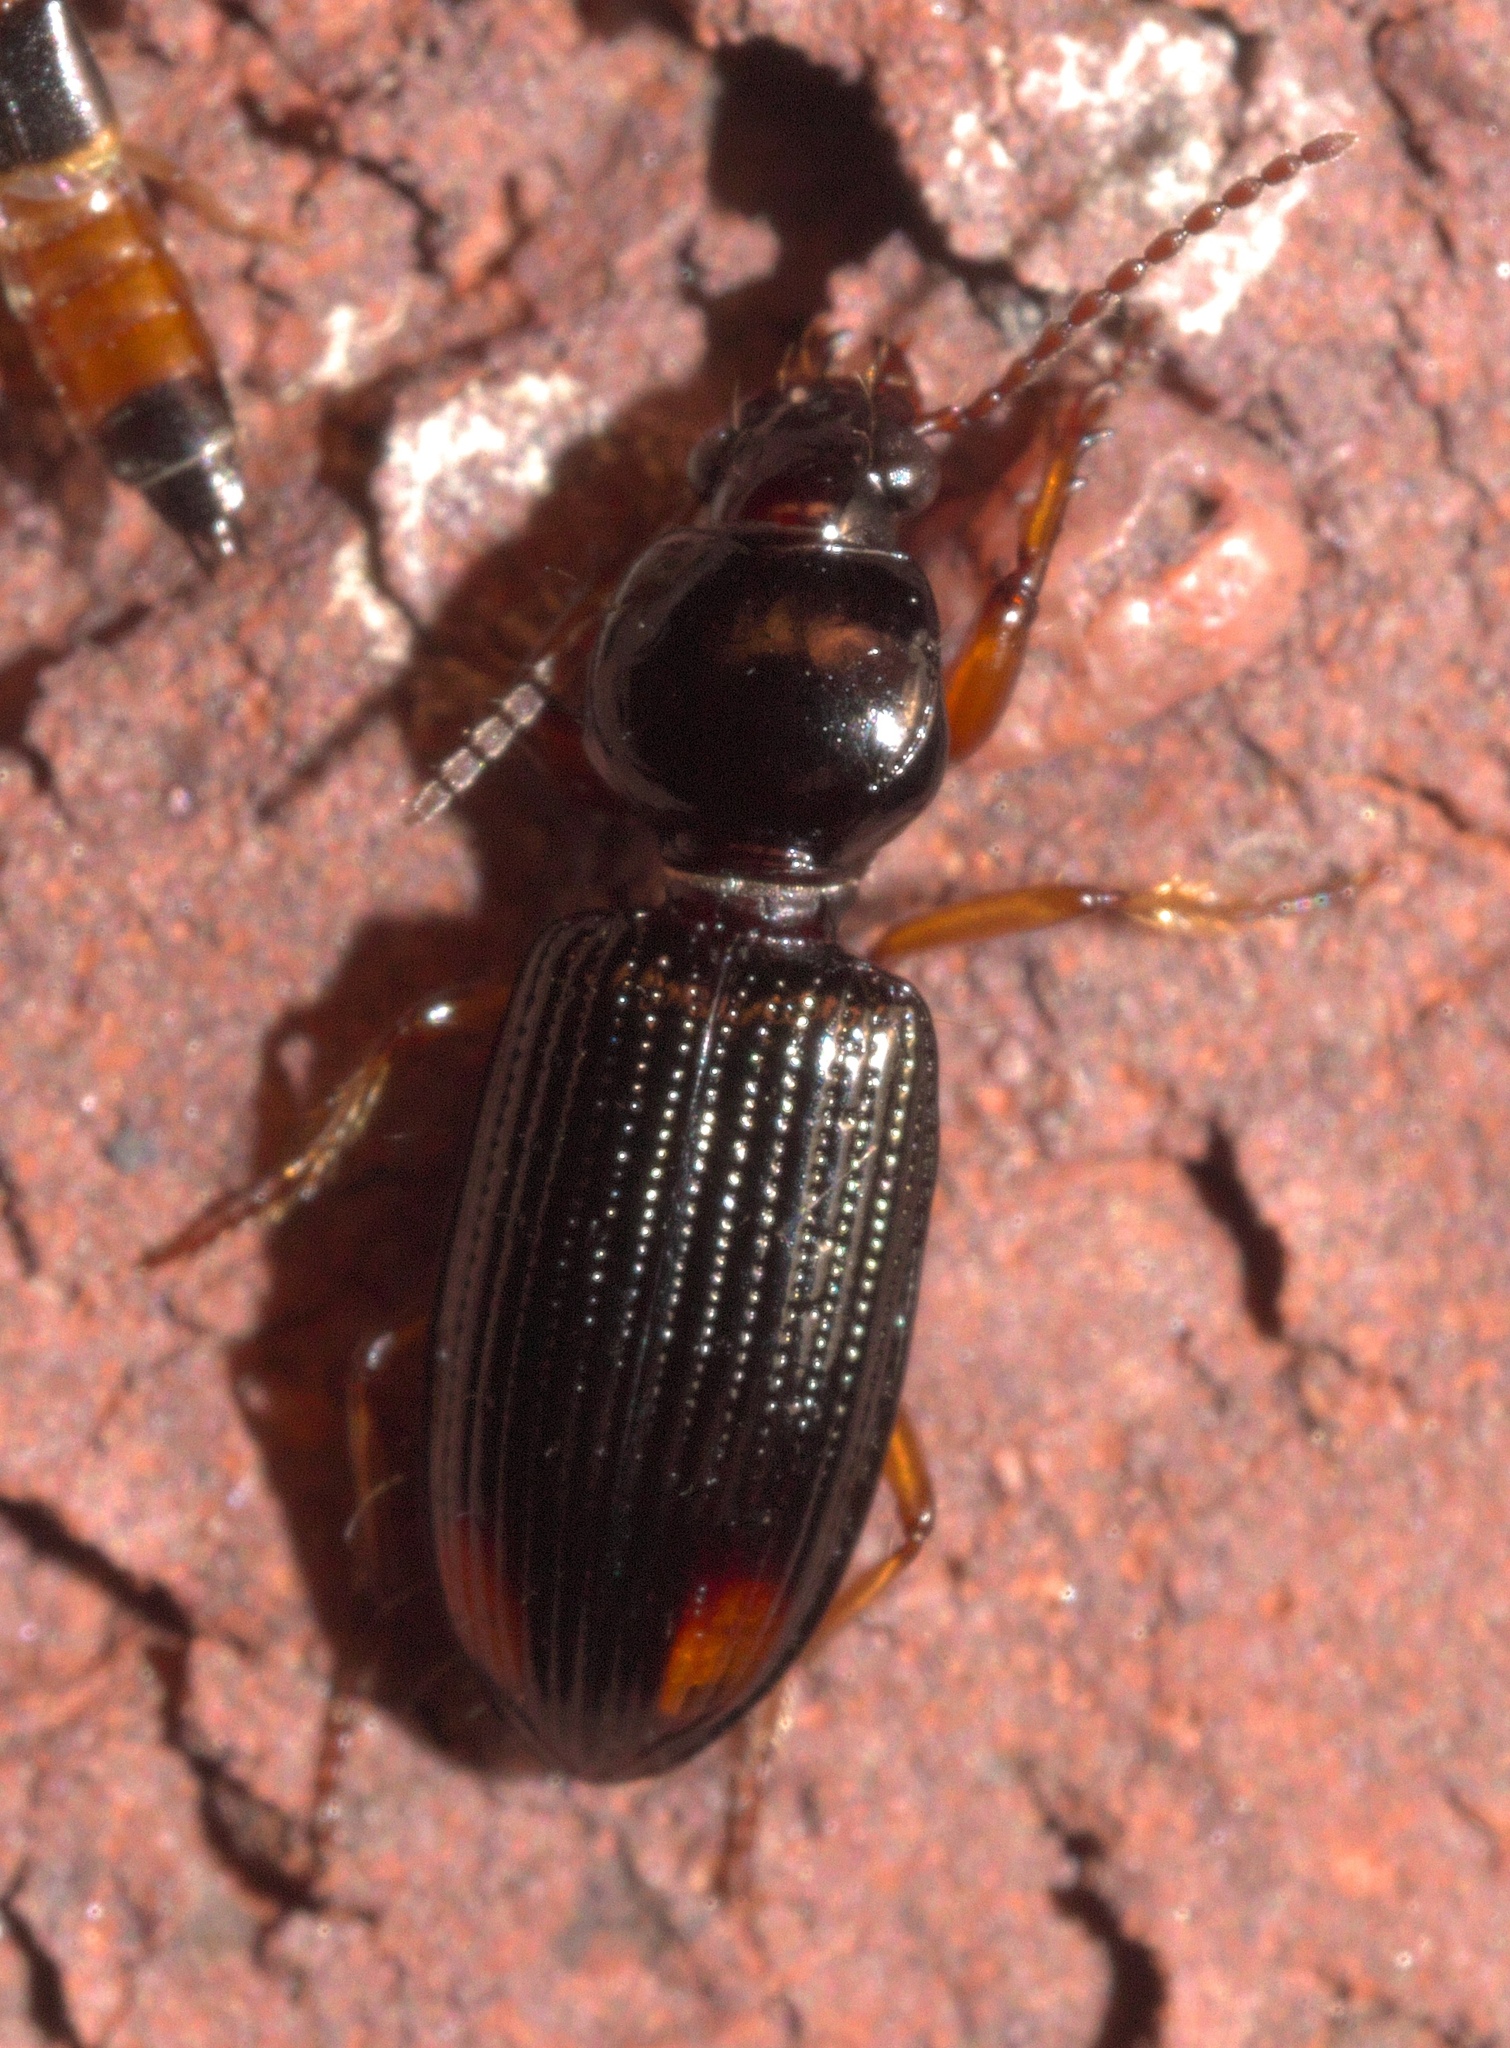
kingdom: Animalia
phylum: Arthropoda
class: Insecta
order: Coleoptera
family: Carabidae
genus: Aspidoglossa
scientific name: Aspidoglossa subangulata
